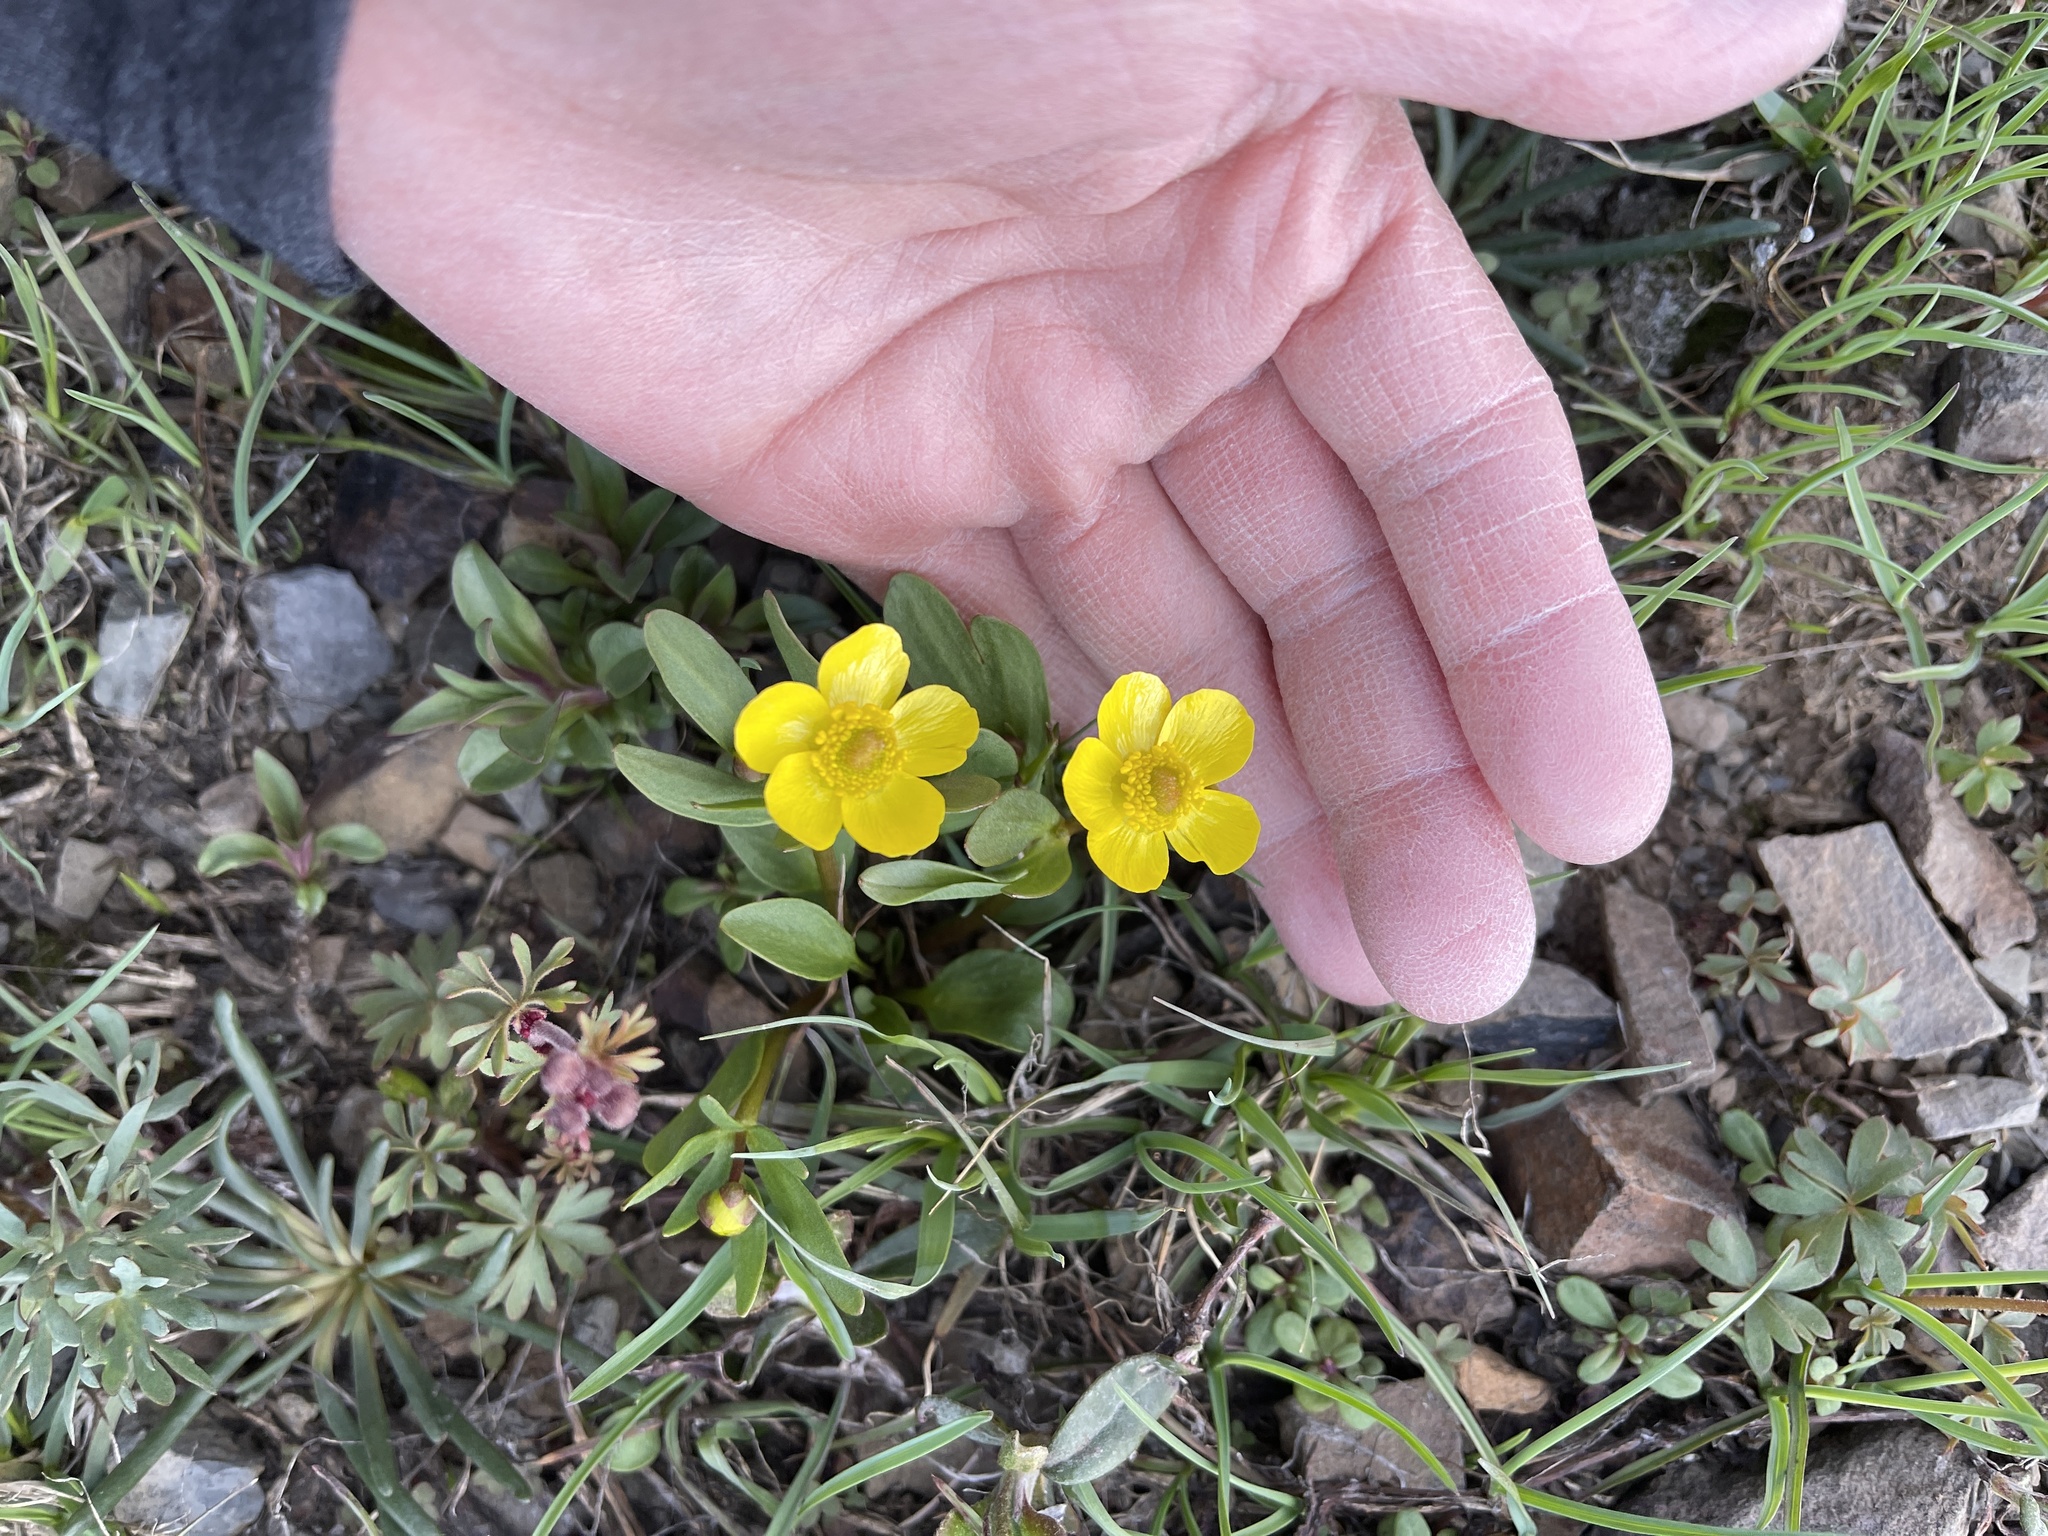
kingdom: Plantae
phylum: Tracheophyta
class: Magnoliopsida
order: Ranunculales
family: Ranunculaceae
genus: Ranunculus
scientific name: Ranunculus glaberrimus
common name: Sagebrush buttercup
